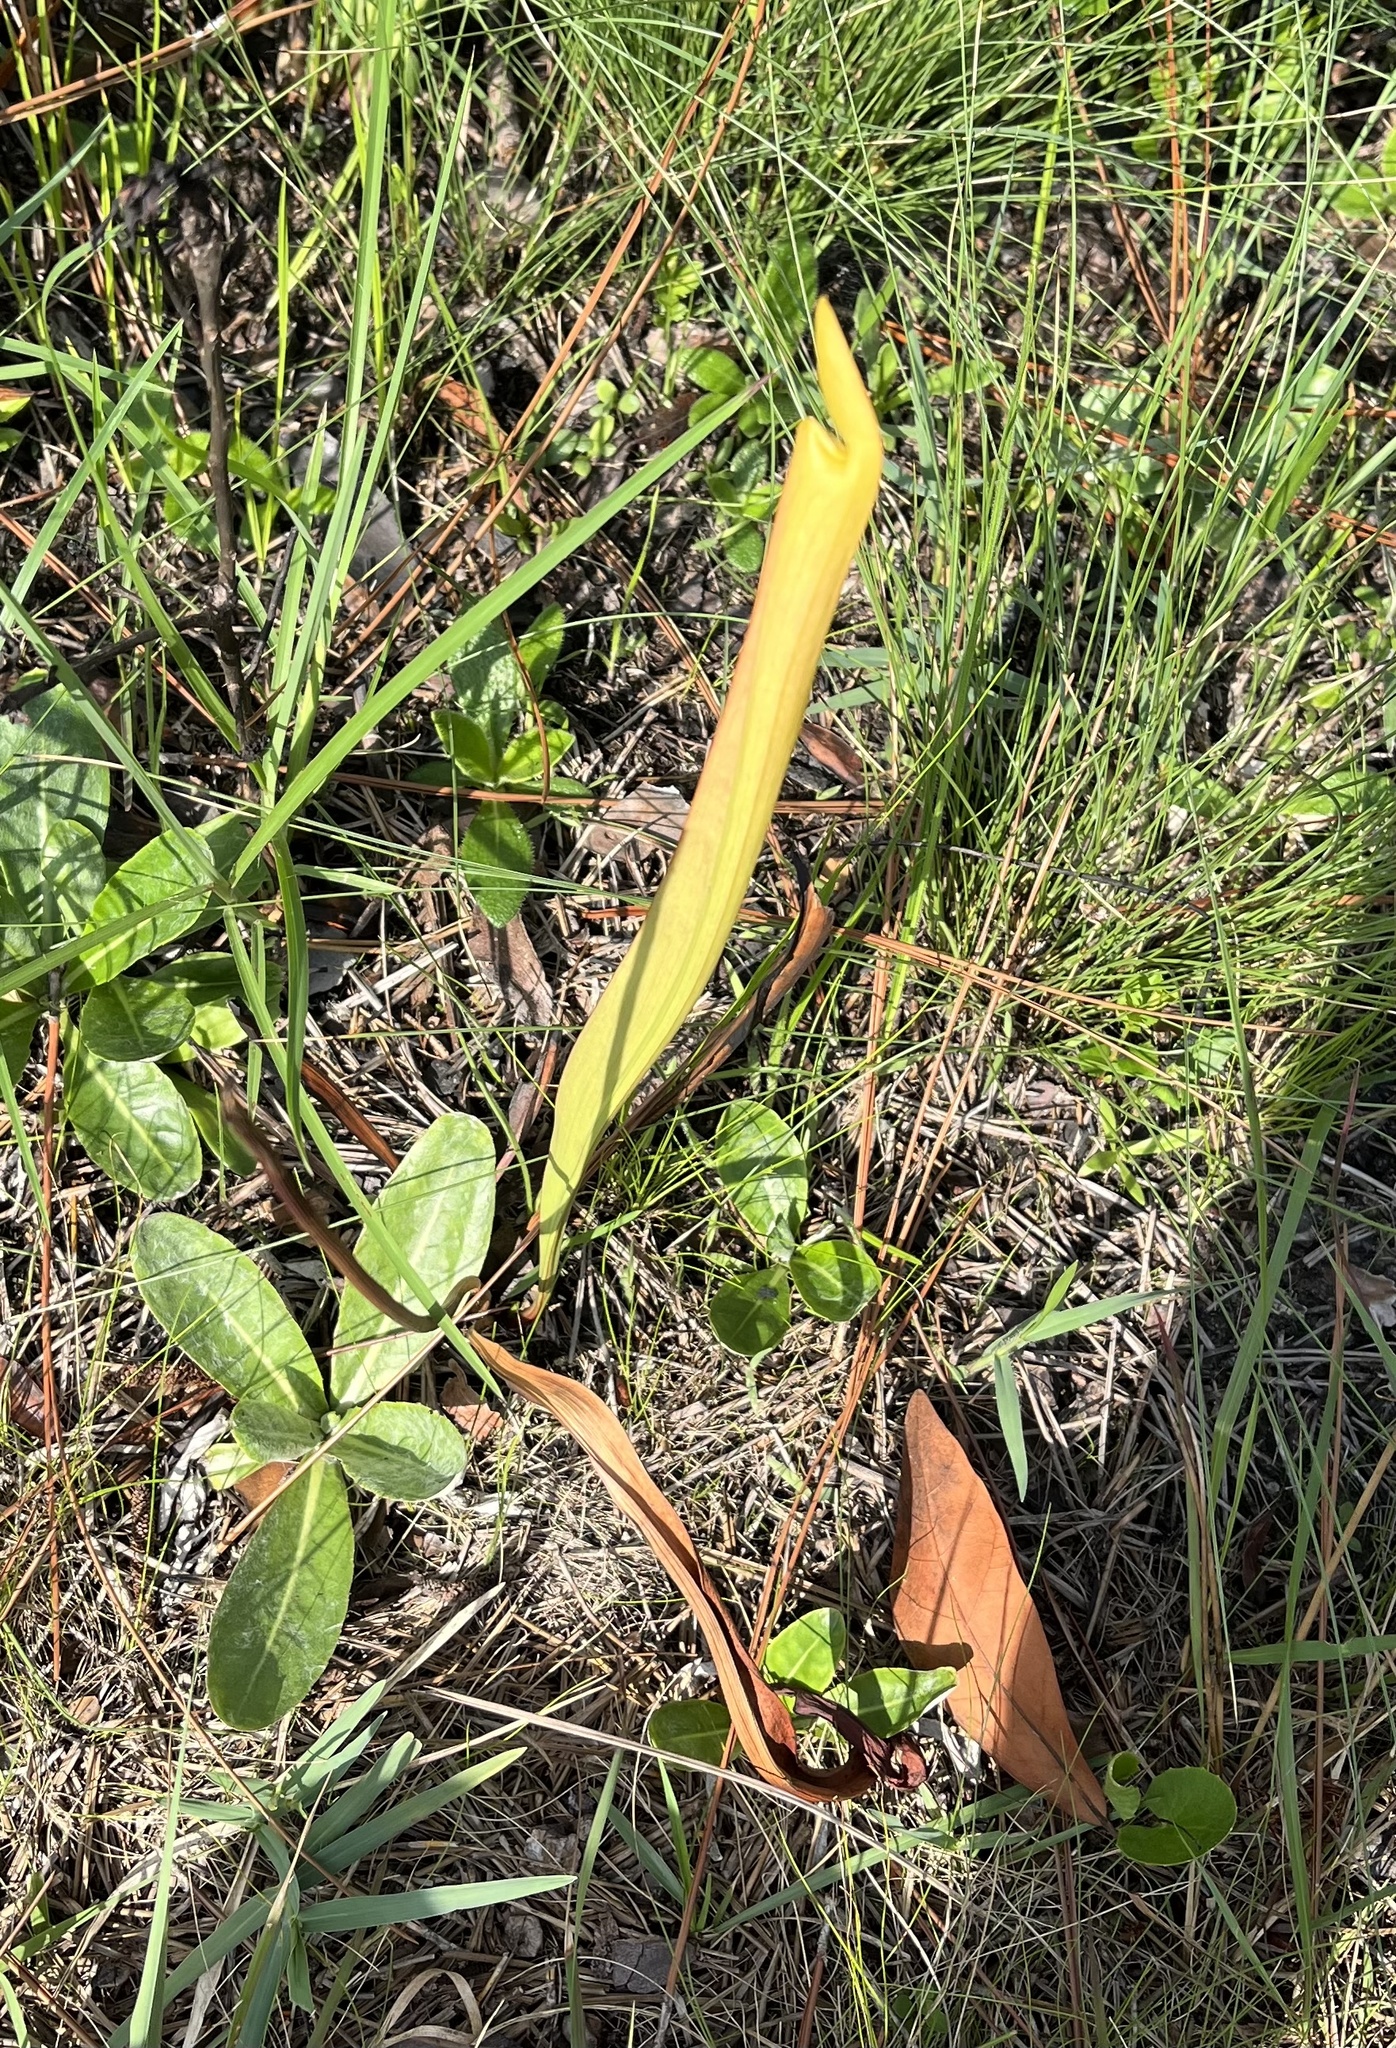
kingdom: Plantae
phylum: Tracheophyta
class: Magnoliopsida
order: Ericales
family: Sarraceniaceae
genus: Sarracenia
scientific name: Sarracenia alata
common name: Yellow trumpets
